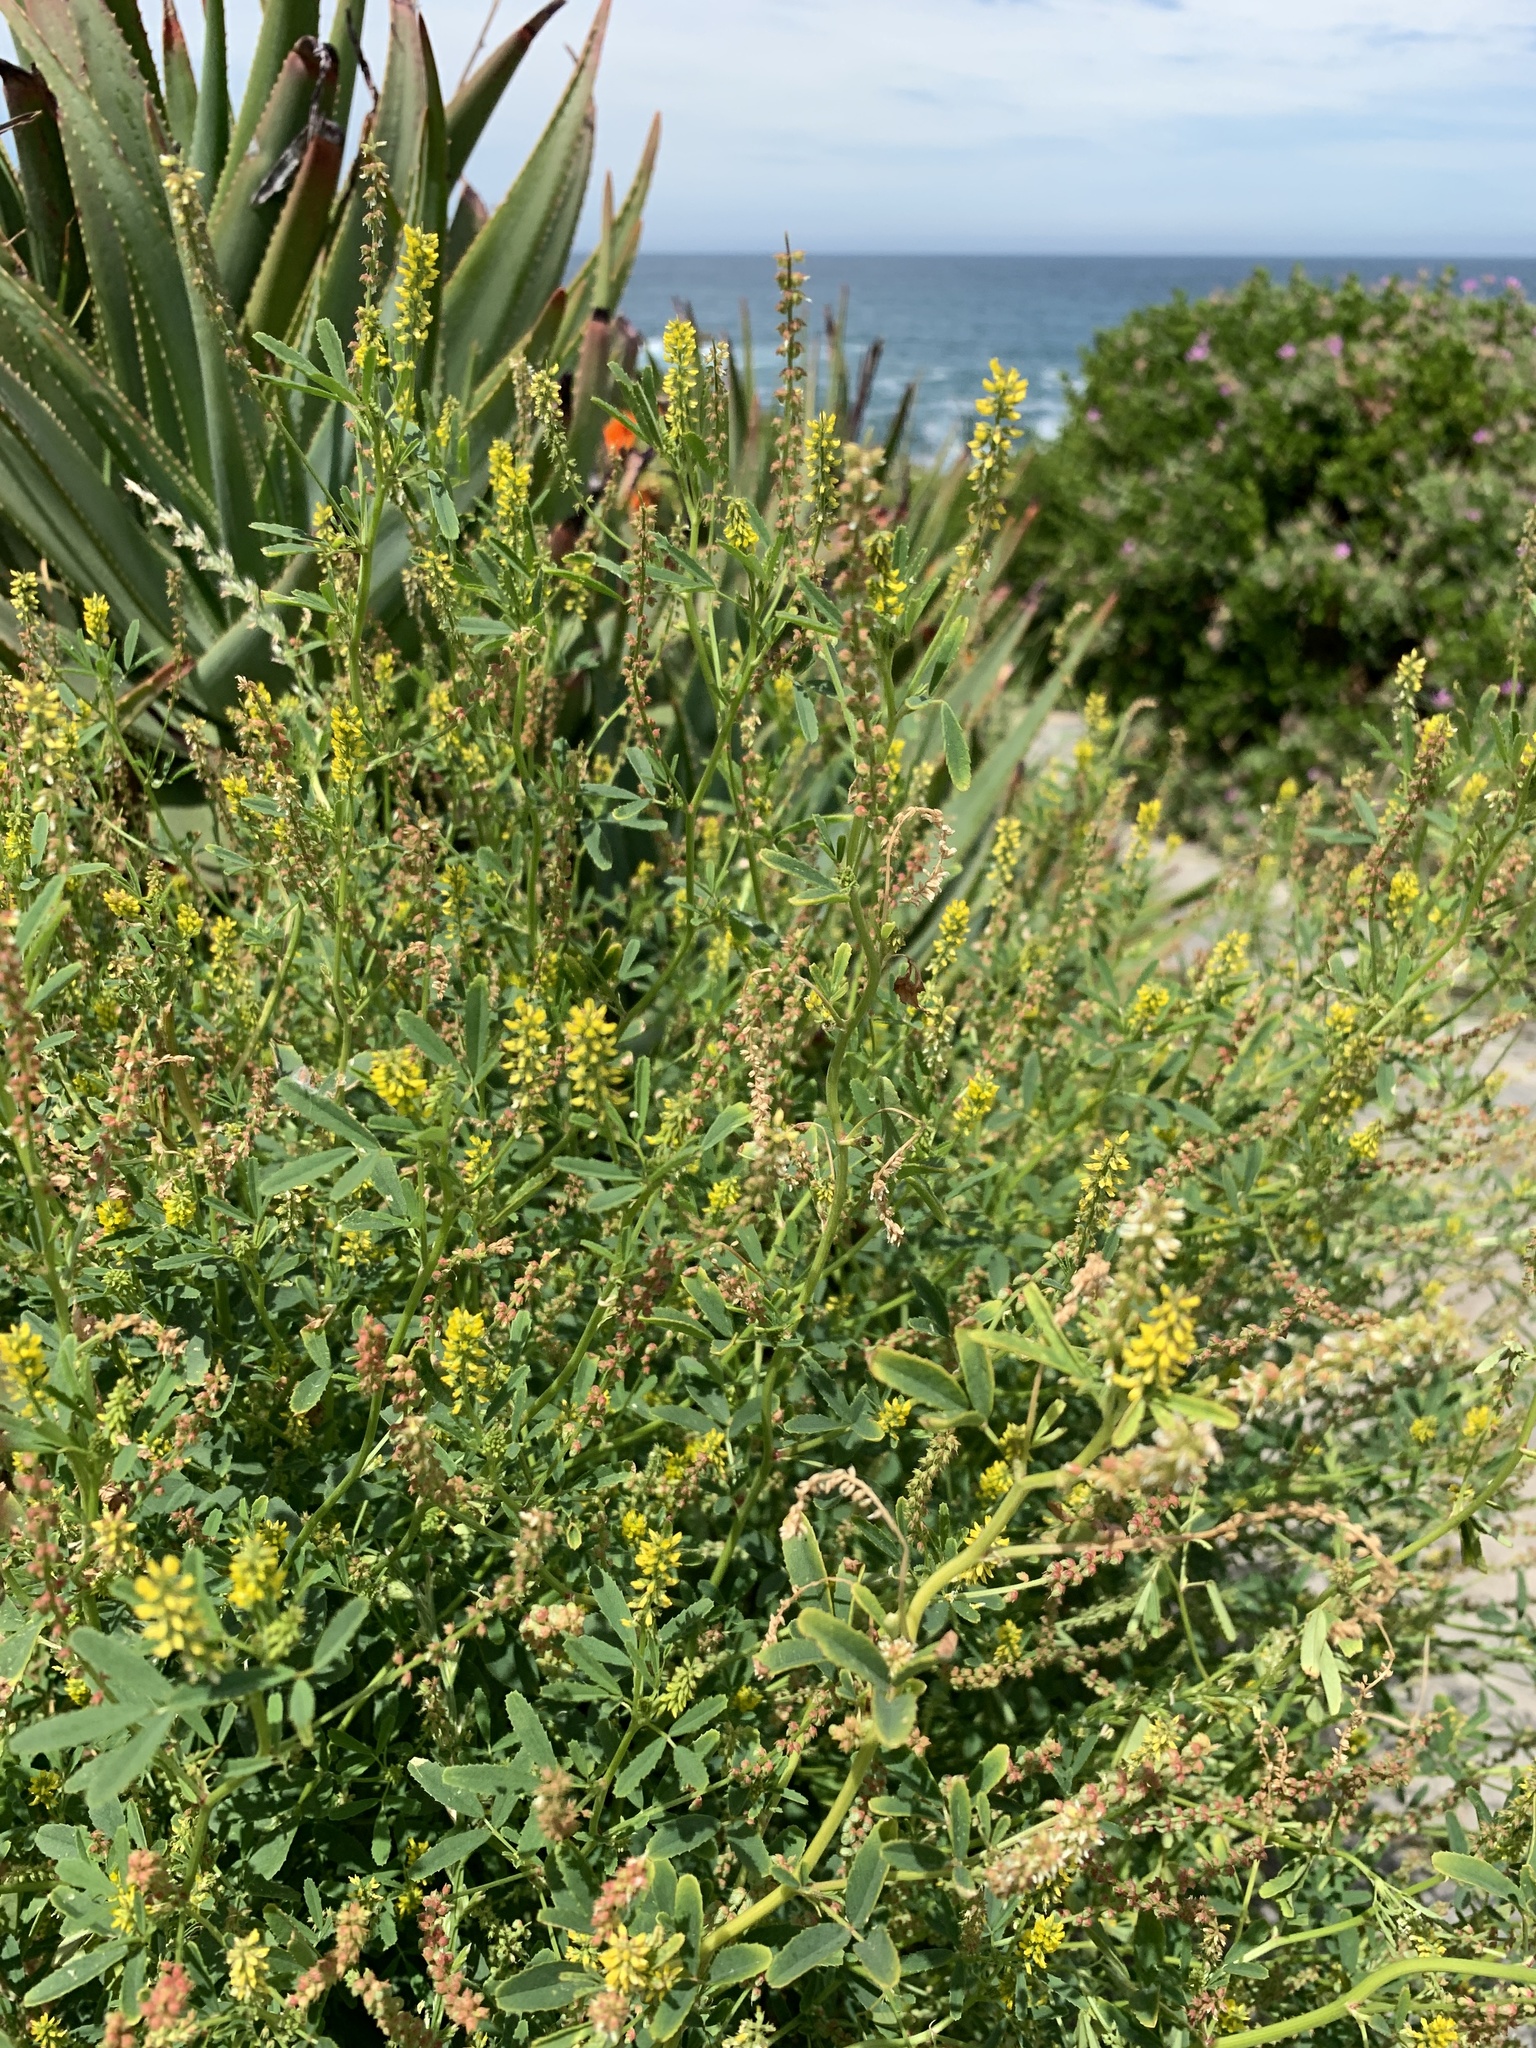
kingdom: Plantae
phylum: Tracheophyta
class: Magnoliopsida
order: Fabales
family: Fabaceae
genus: Melilotus
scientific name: Melilotus indicus
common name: Small melilot
